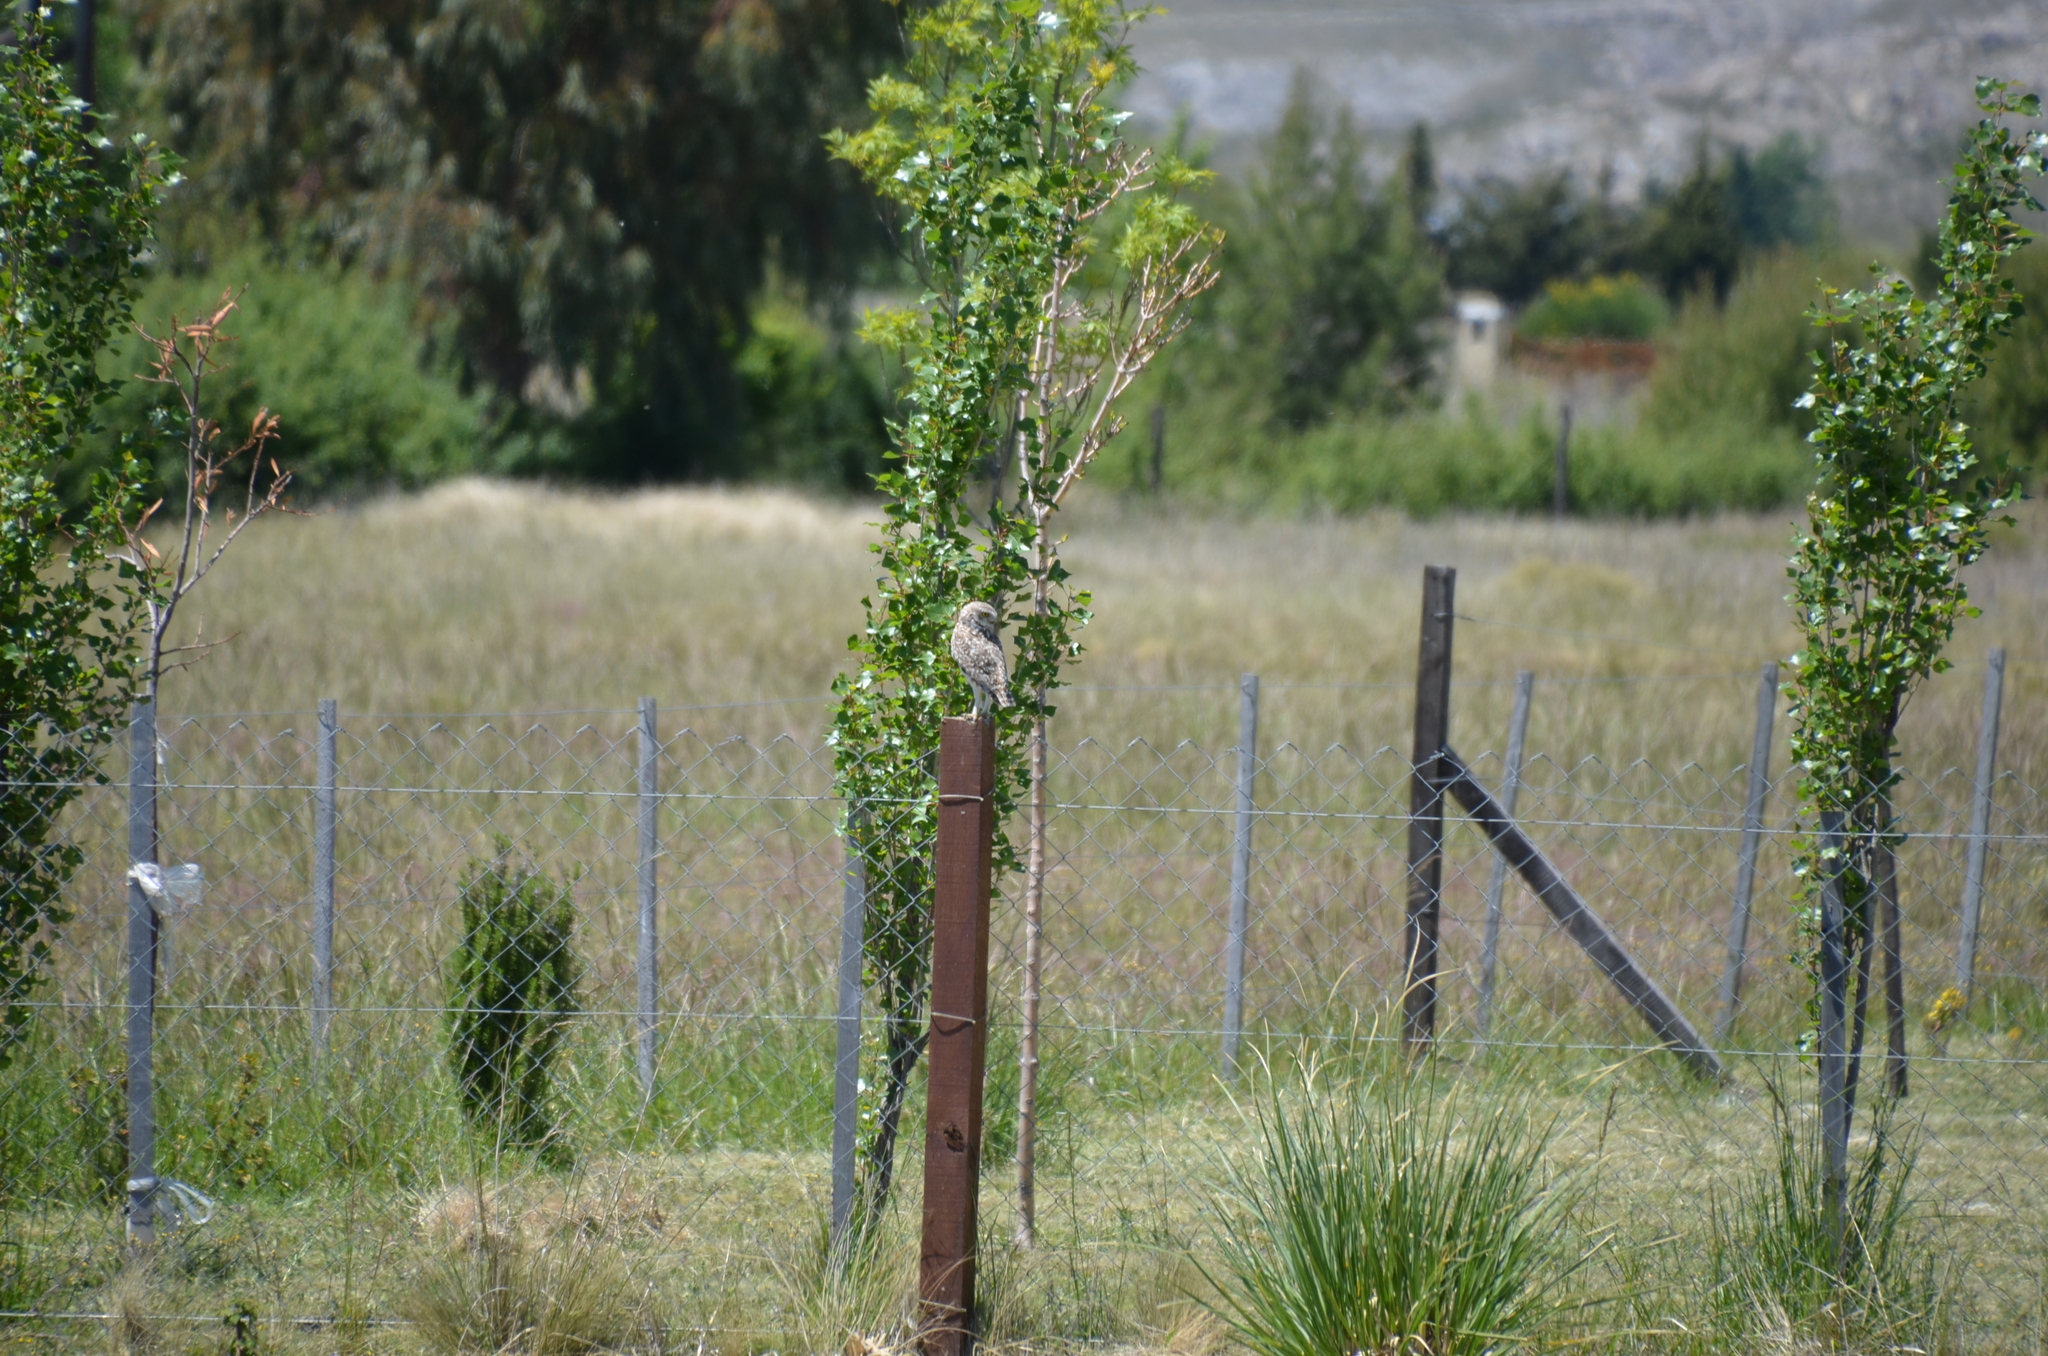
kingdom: Animalia
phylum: Chordata
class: Aves
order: Strigiformes
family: Strigidae
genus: Athene
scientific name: Athene cunicularia
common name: Burrowing owl
